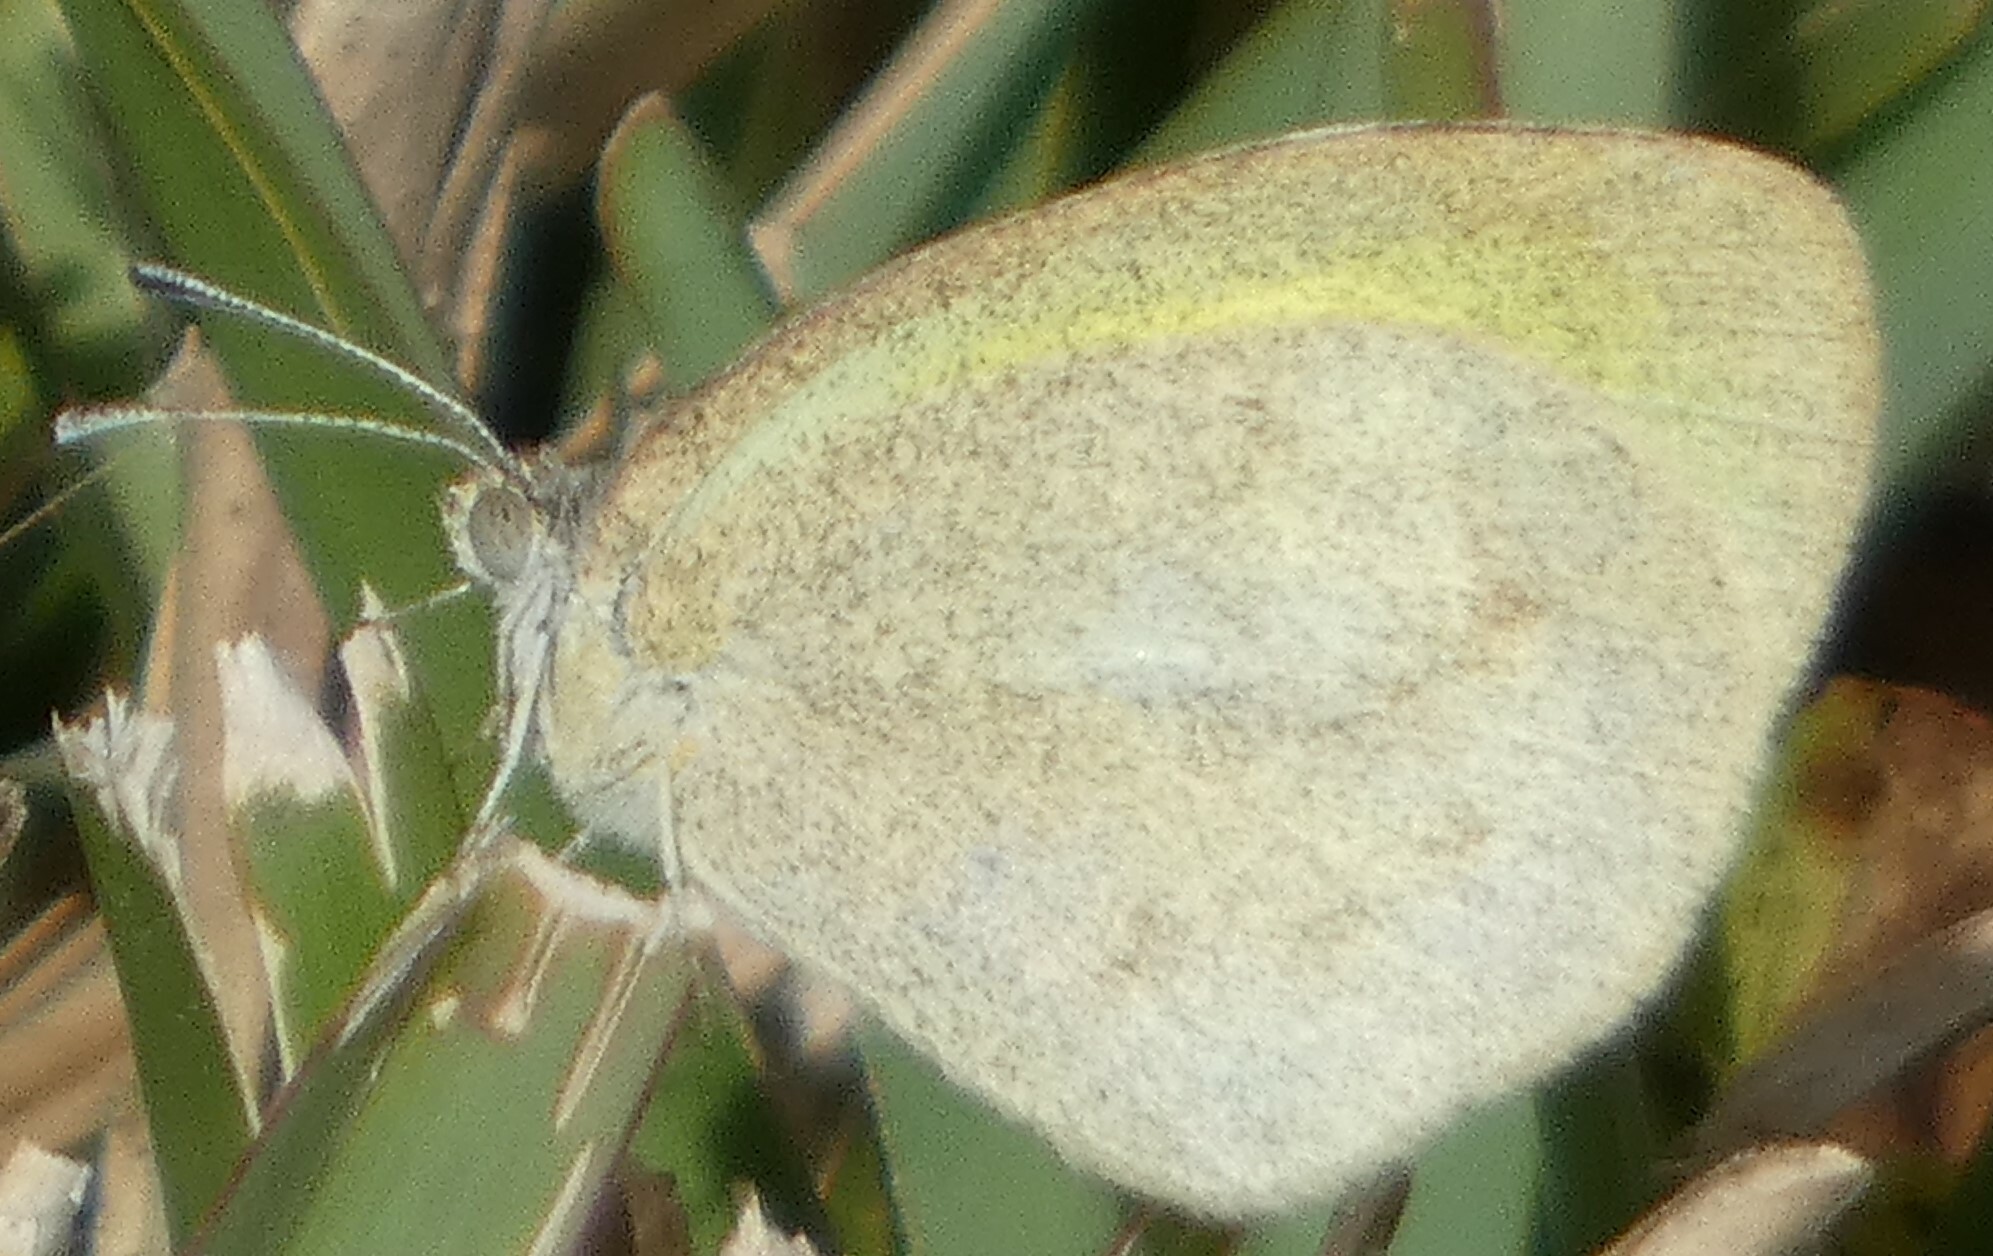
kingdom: Animalia
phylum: Arthropoda
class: Insecta
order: Lepidoptera
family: Pieridae
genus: Eurema
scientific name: Eurema daira
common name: Barred sulphur
